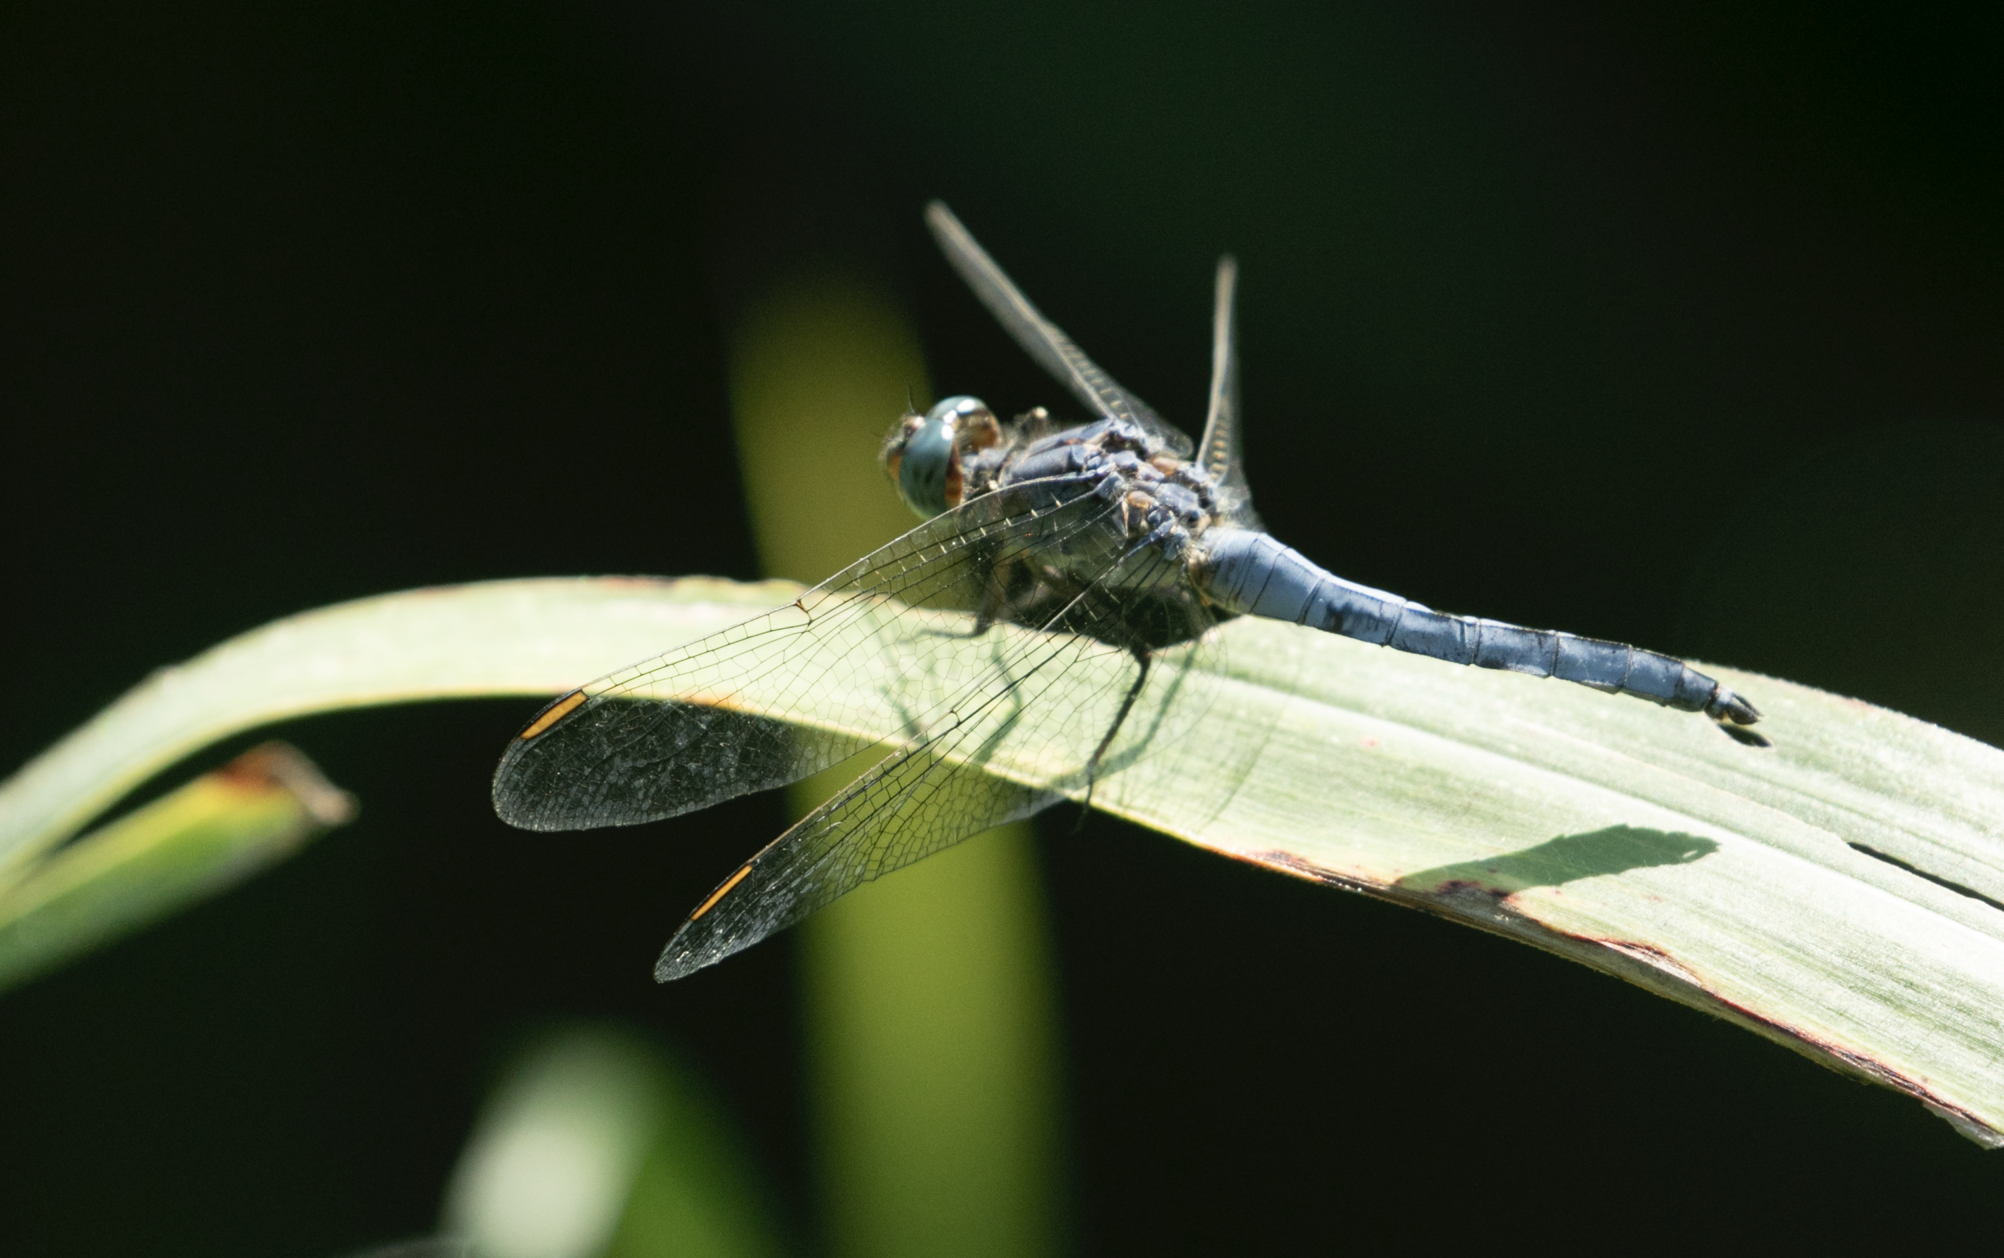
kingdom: Animalia
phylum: Arthropoda
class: Insecta
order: Odonata
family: Libellulidae
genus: Orthetrum
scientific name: Orthetrum coerulescens
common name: Keeled skimmer
